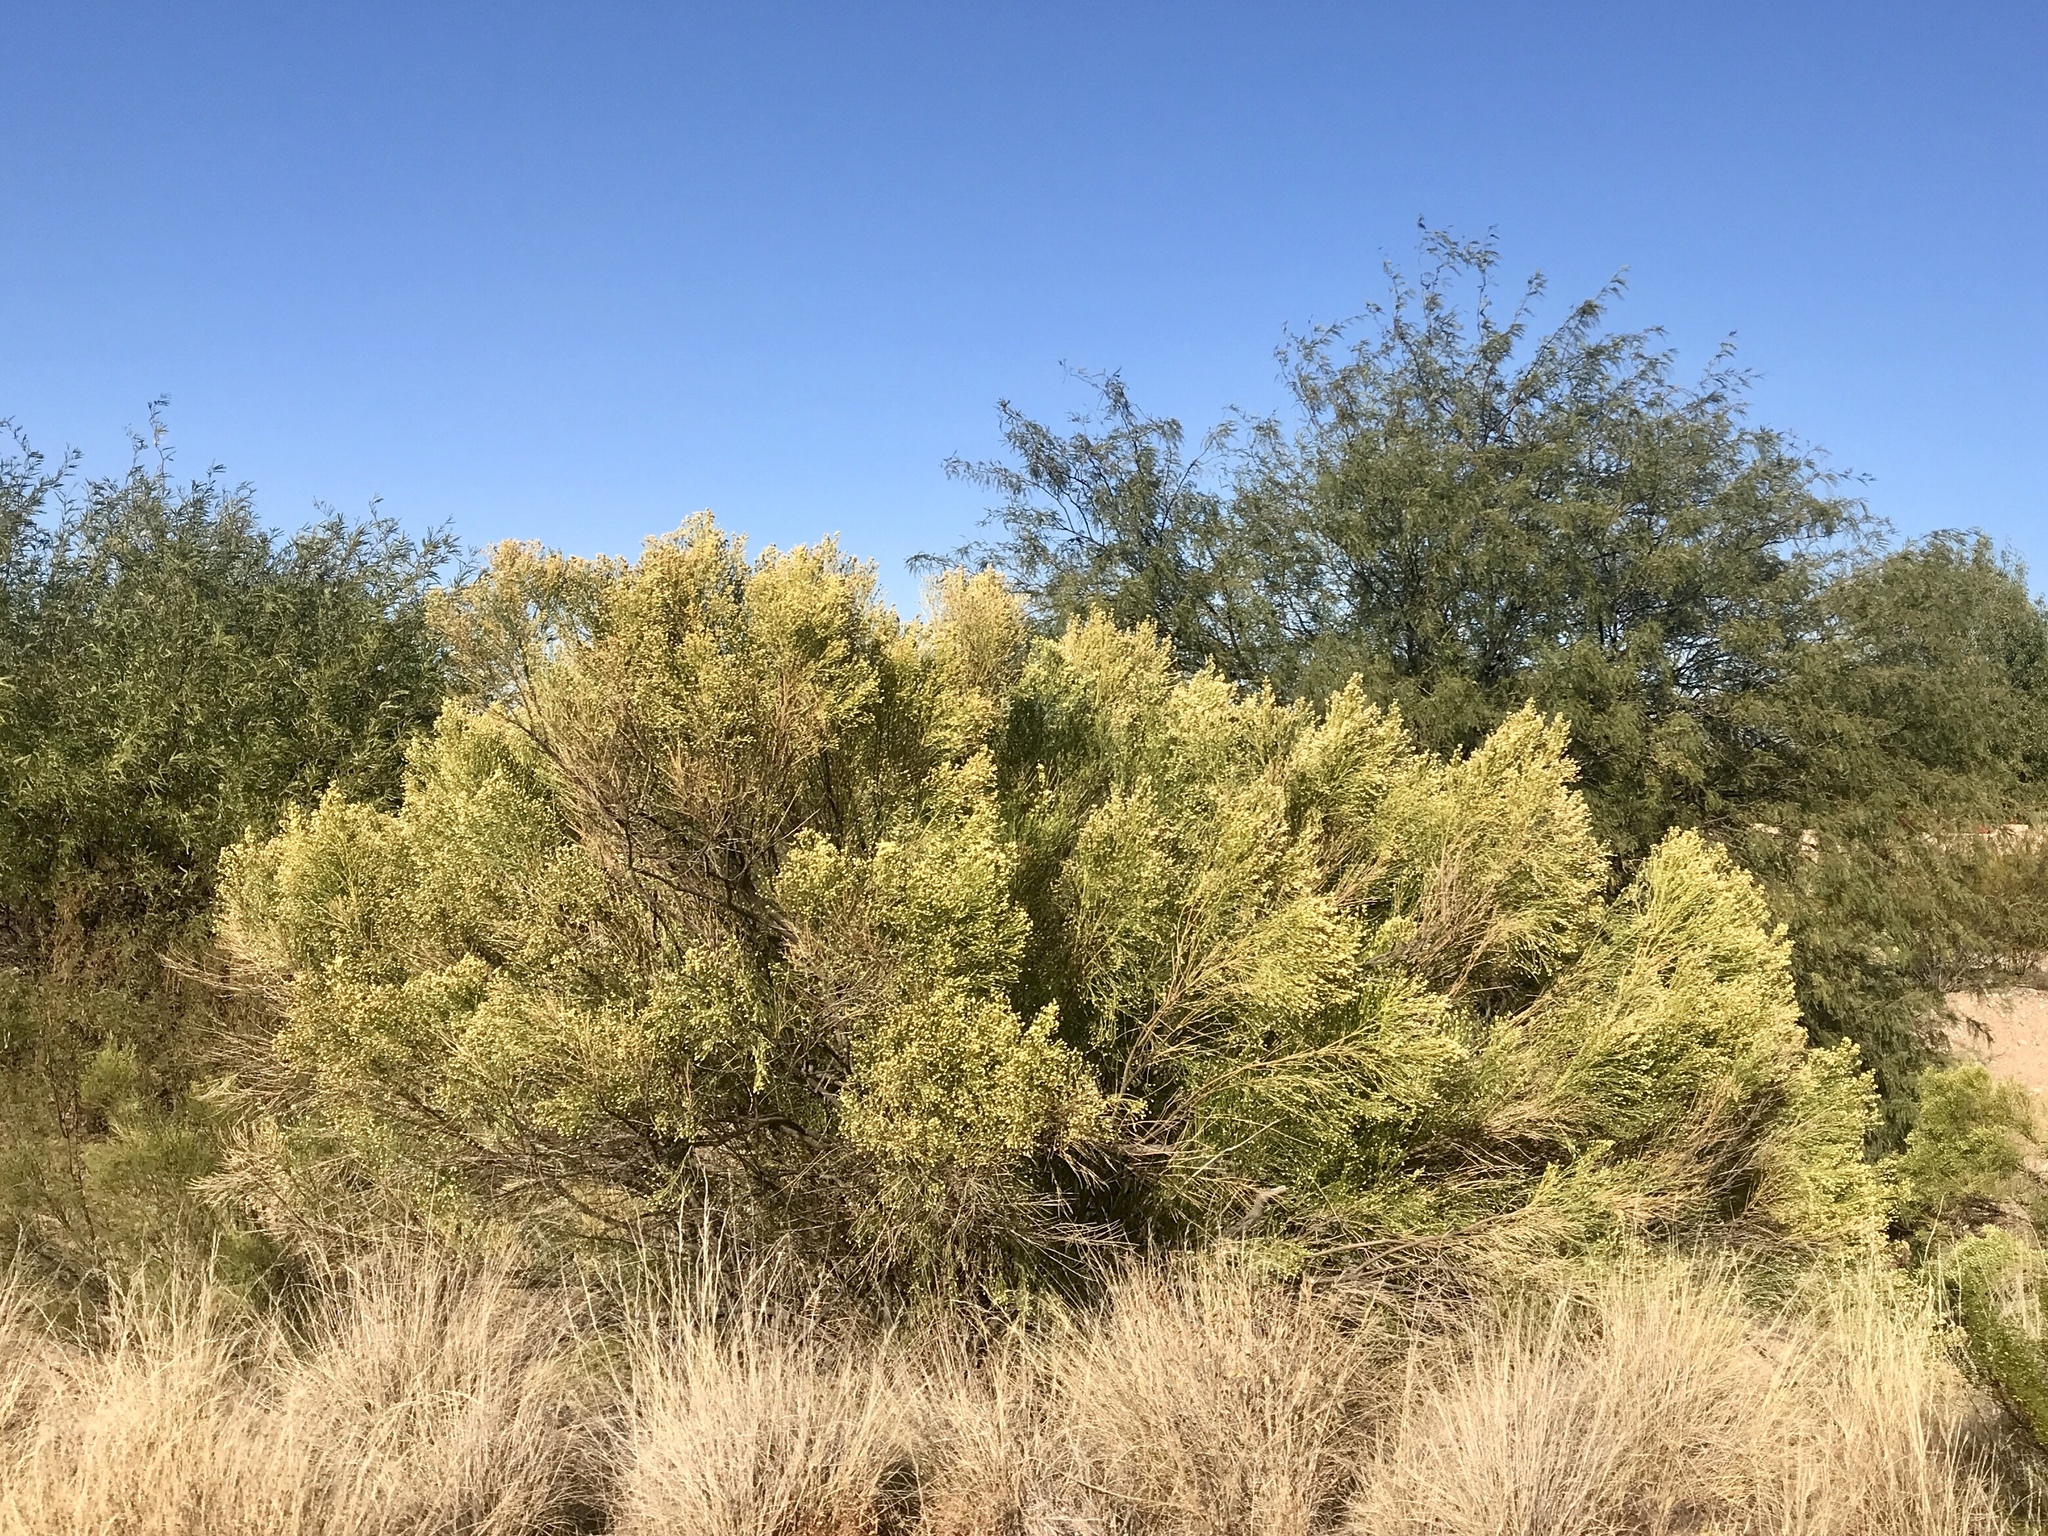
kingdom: Plantae
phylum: Tracheophyta
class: Magnoliopsida
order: Asterales
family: Asteraceae
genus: Baccharis
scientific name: Baccharis sarothroides
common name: Desert-broom
